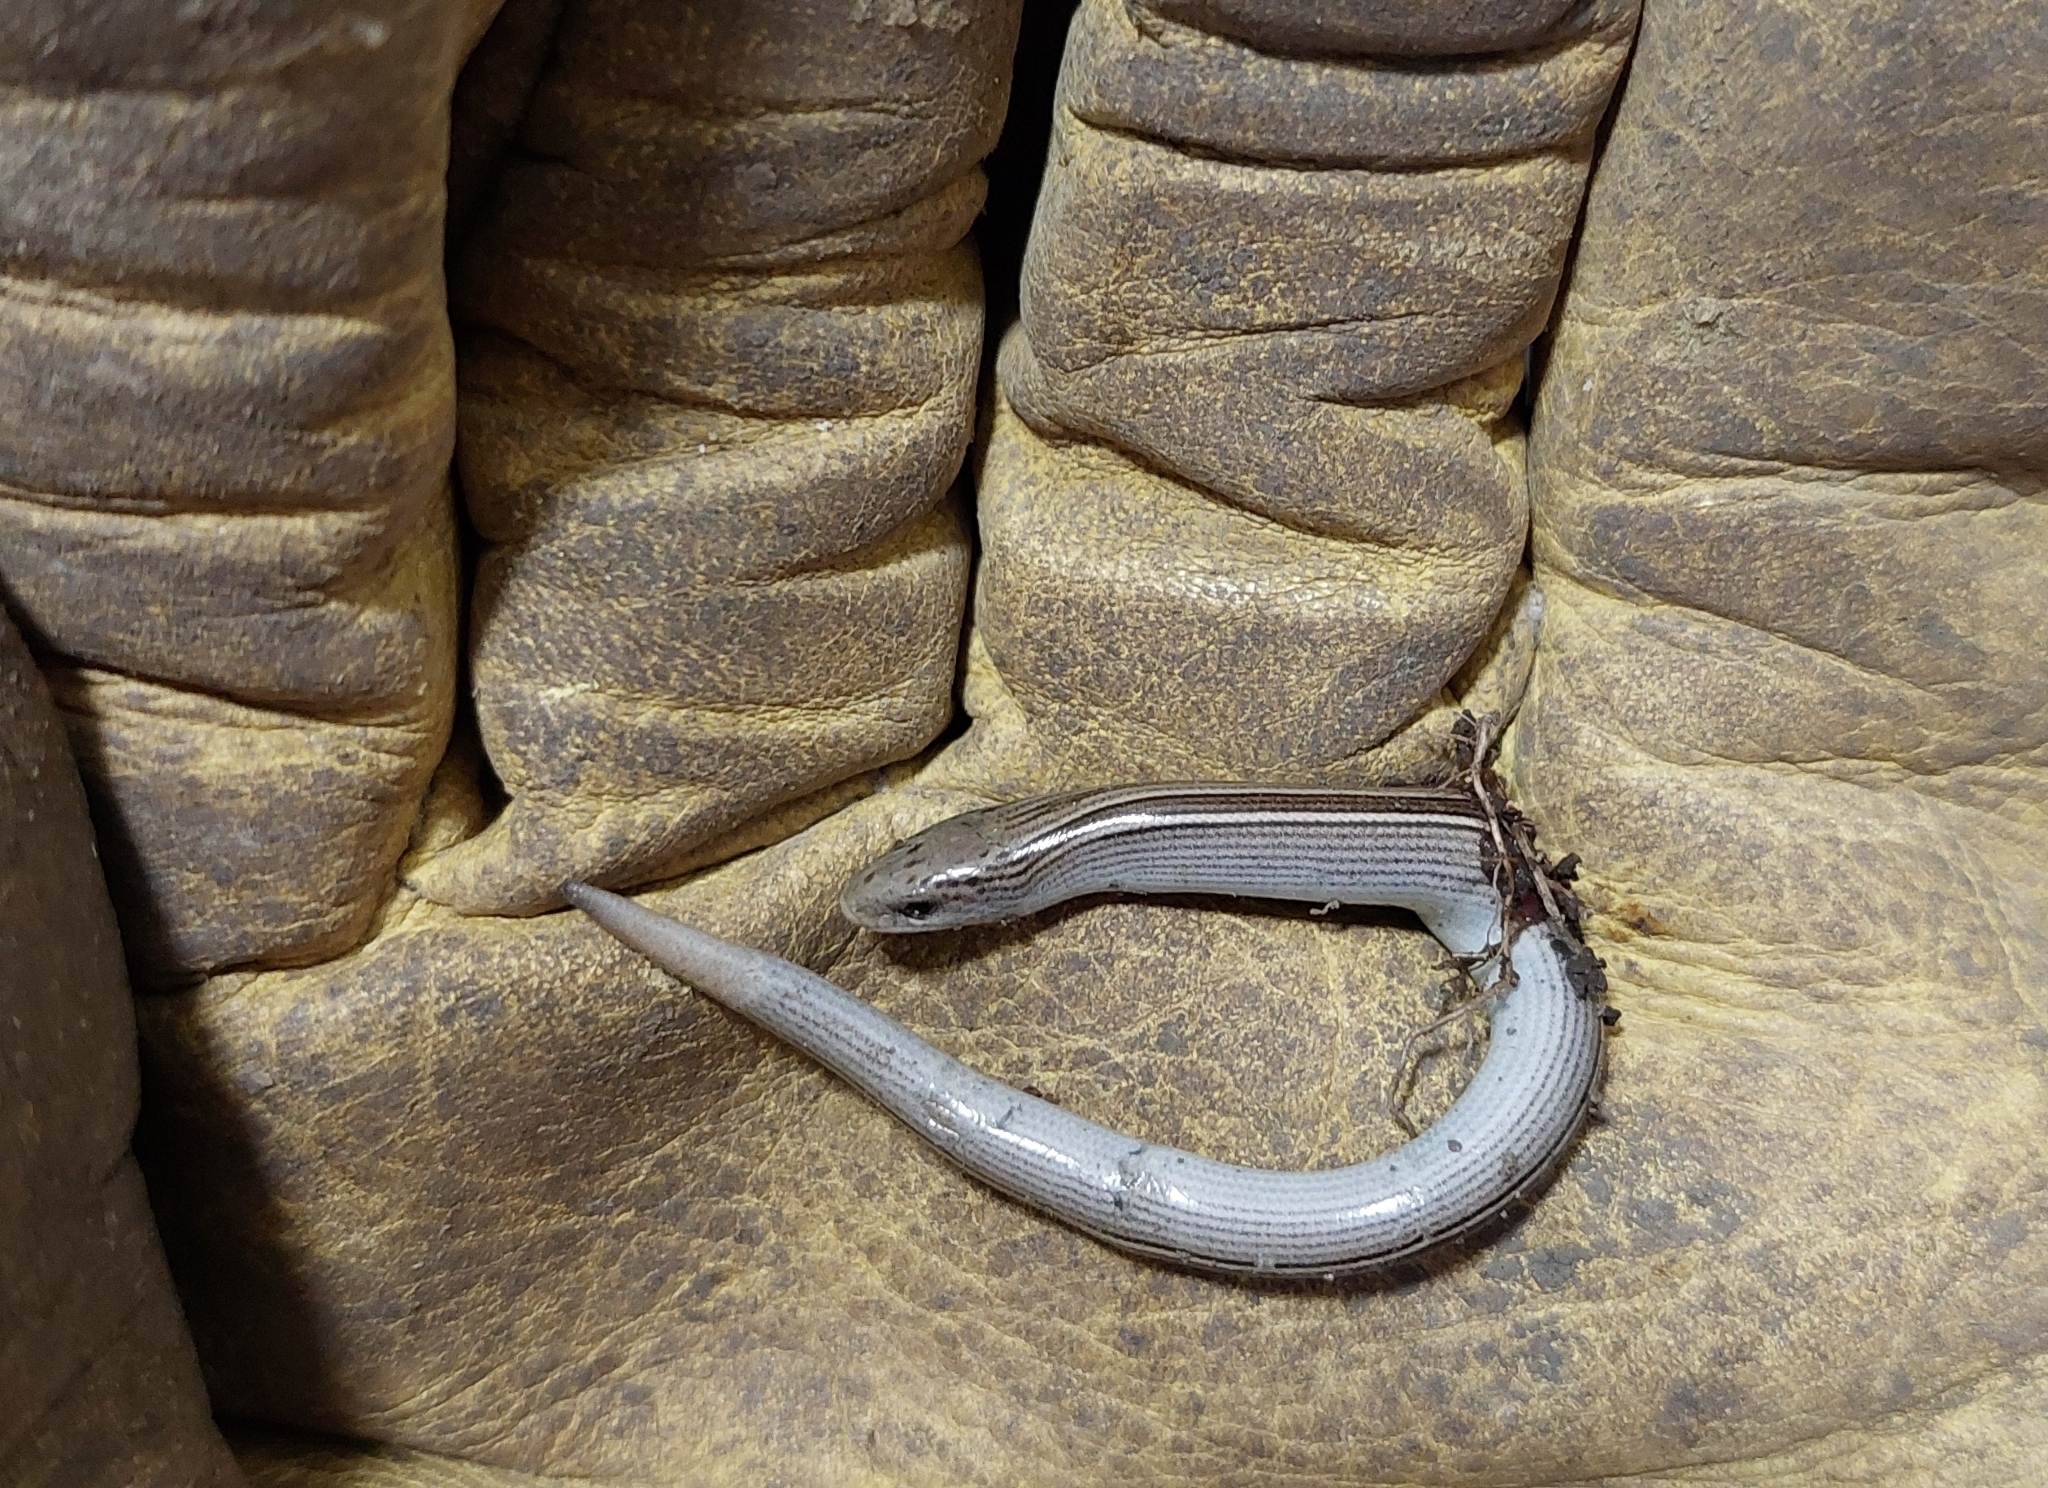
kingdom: Animalia
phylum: Chordata
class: Squamata
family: Diploglossidae
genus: Ophiodes
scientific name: Ophiodes vertebralis
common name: Jointed worm lizard
